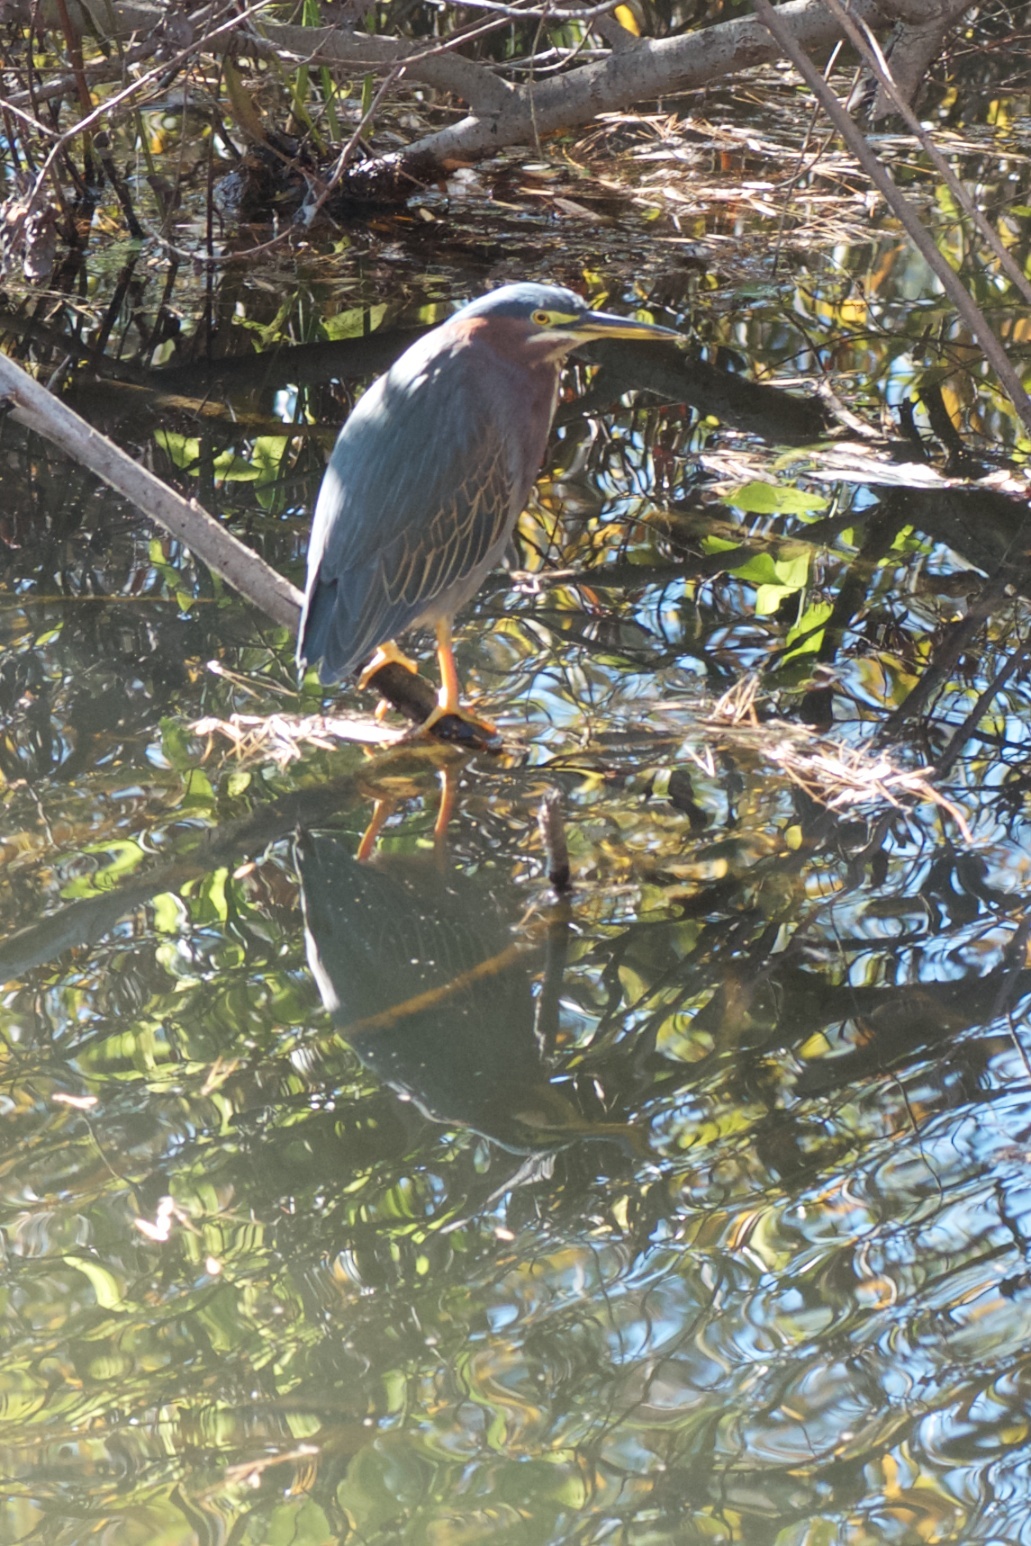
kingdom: Animalia
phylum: Chordata
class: Aves
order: Pelecaniformes
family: Ardeidae
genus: Butorides
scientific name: Butorides virescens
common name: Green heron
